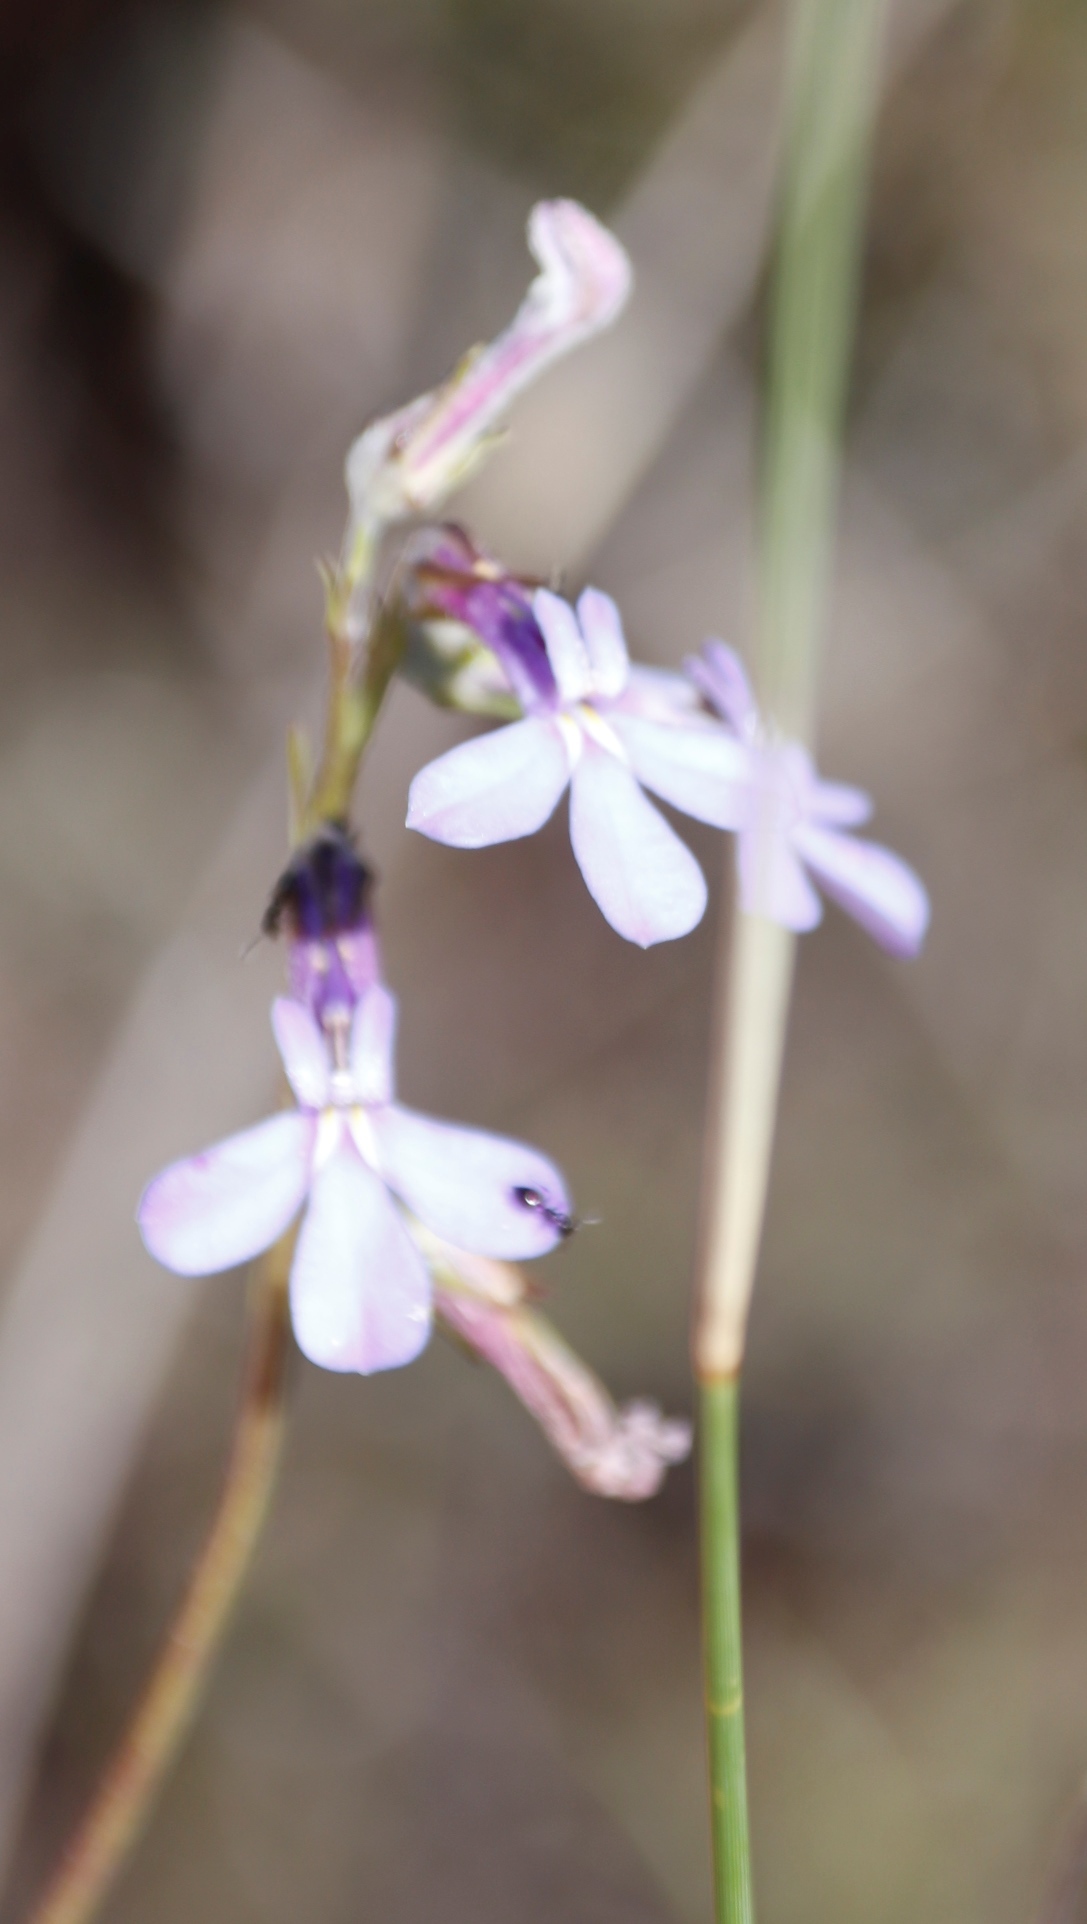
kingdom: Plantae
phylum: Tracheophyta
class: Magnoliopsida
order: Asterales
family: Campanulaceae
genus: Lobelia
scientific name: Lobelia pinifolia
